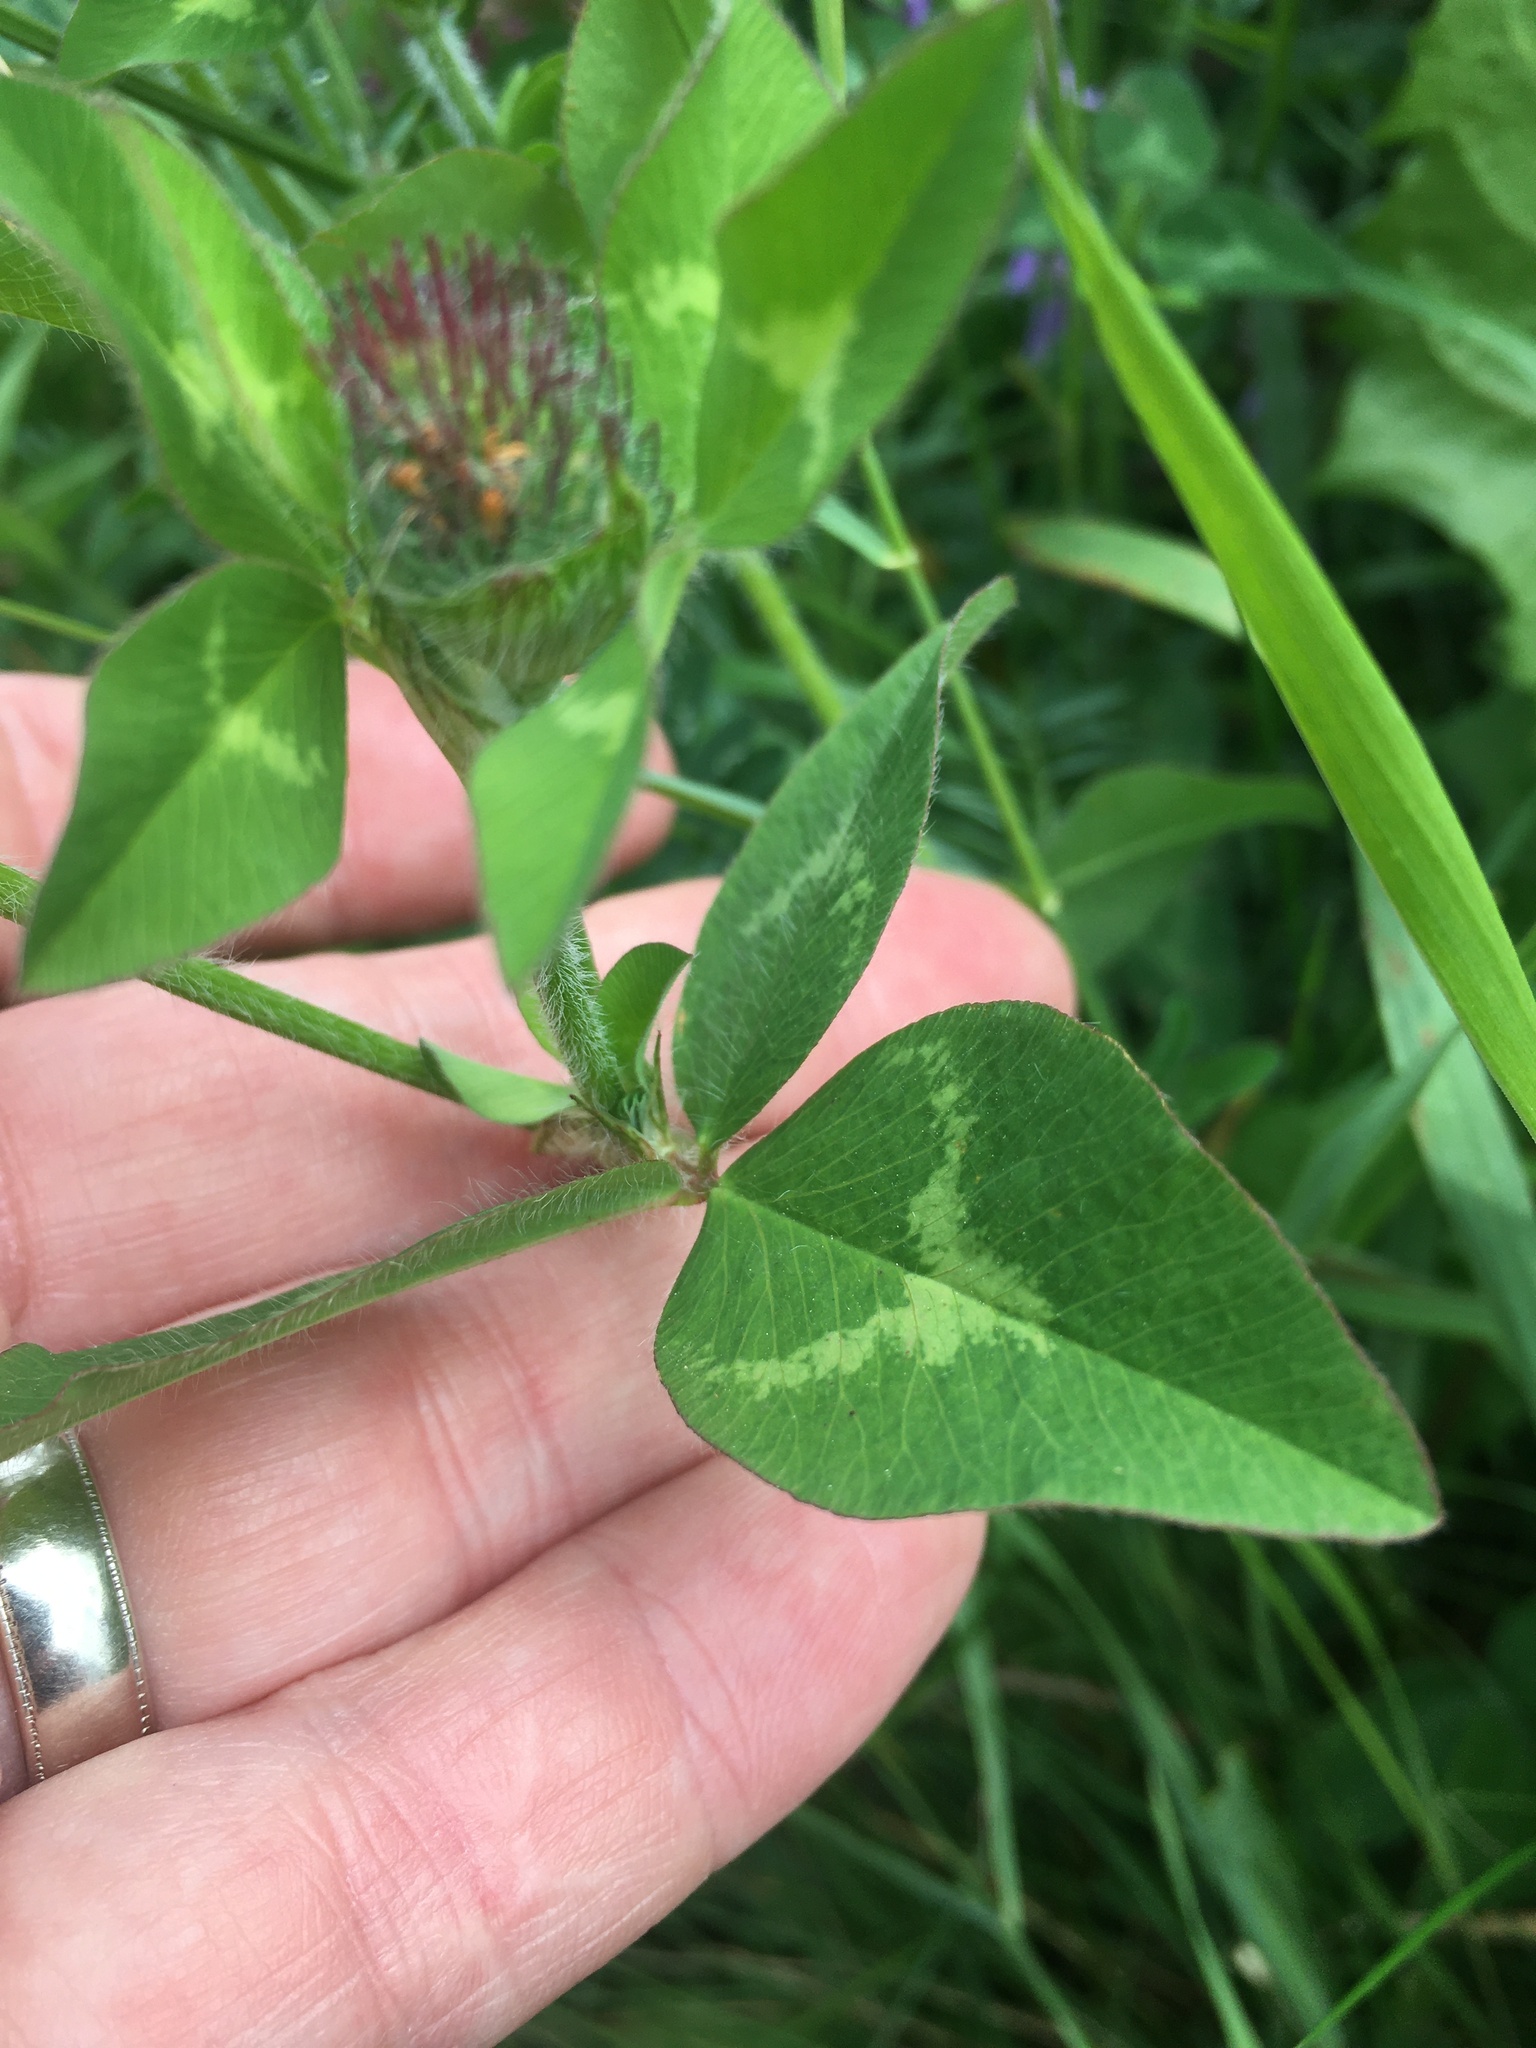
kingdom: Plantae
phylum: Tracheophyta
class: Magnoliopsida
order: Fabales
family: Fabaceae
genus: Trifolium
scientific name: Trifolium pratense
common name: Red clover
